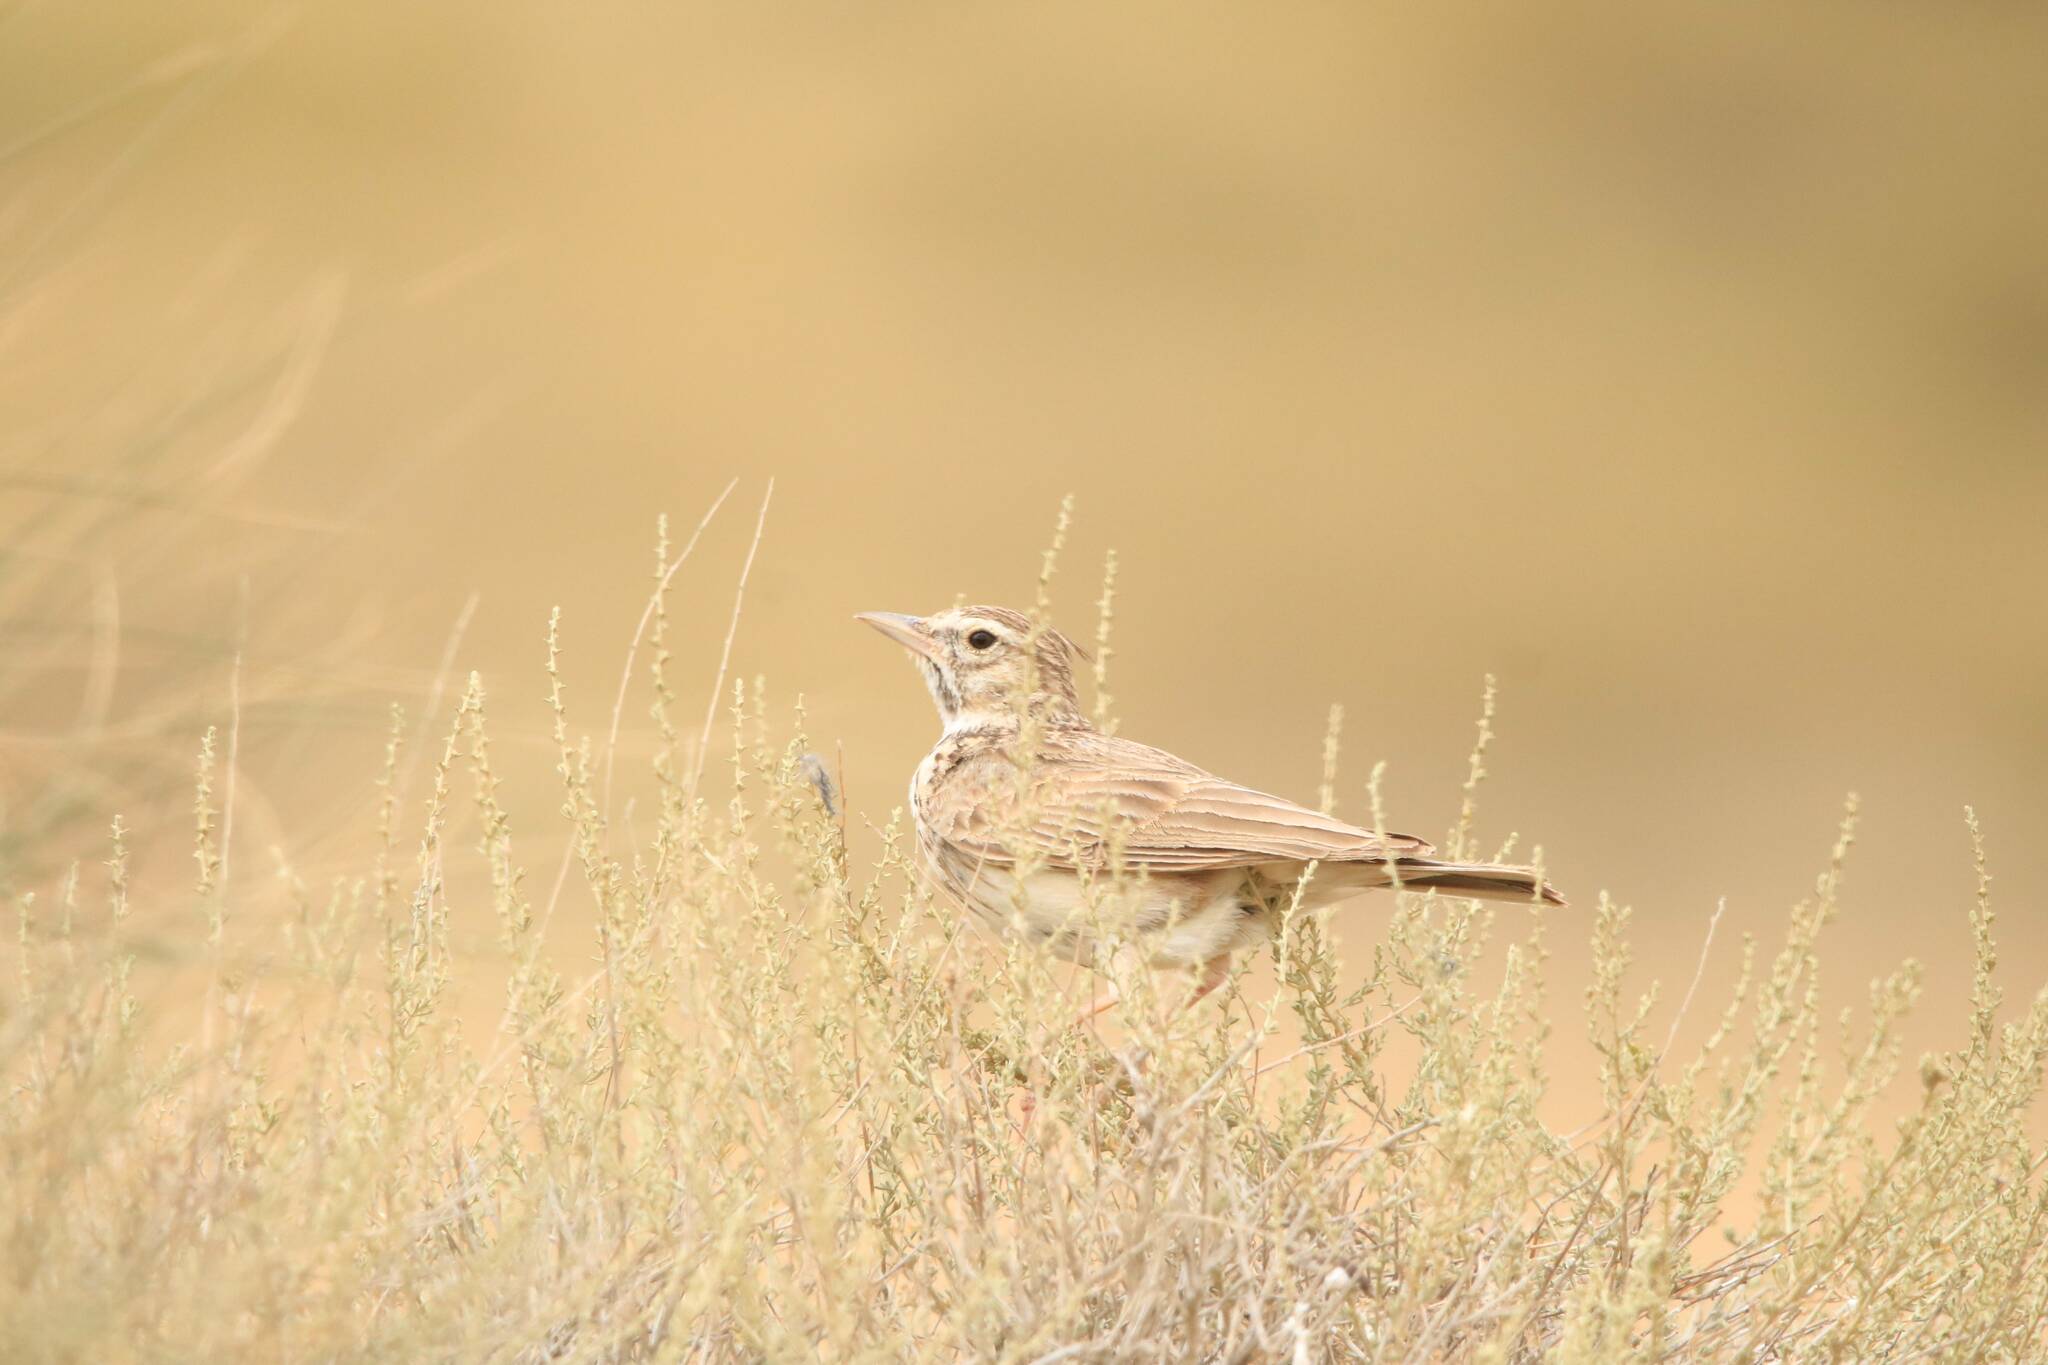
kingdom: Animalia
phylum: Chordata
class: Aves
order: Passeriformes
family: Alaudidae
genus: Galerida
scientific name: Galerida cristata
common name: Crested lark
